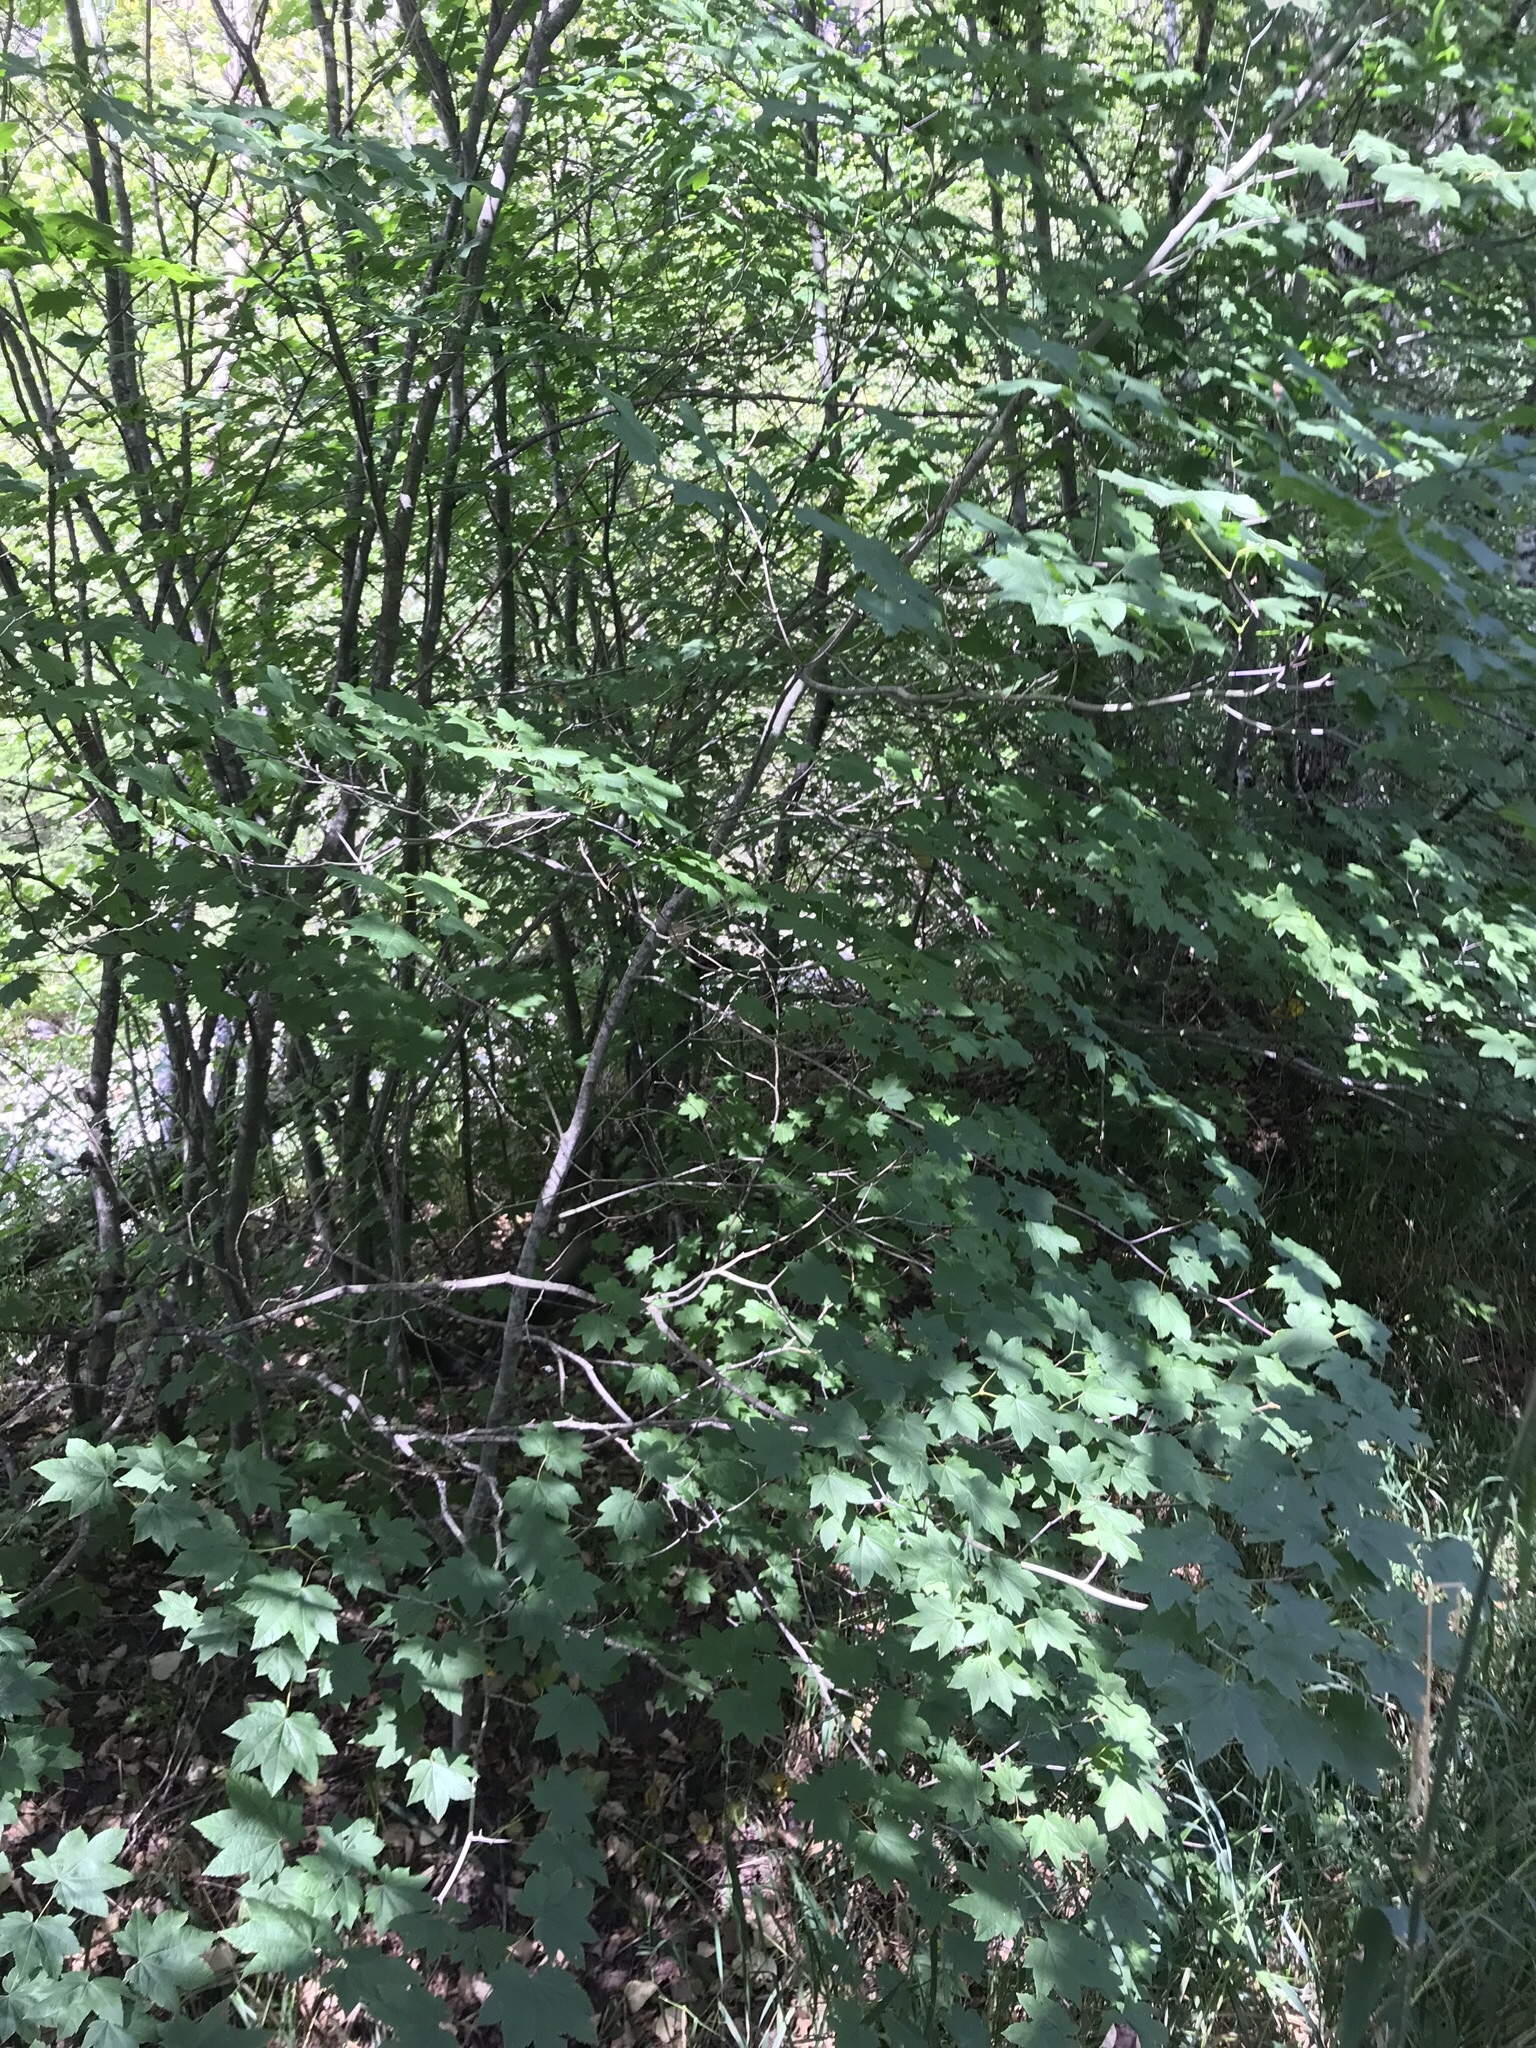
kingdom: Plantae
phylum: Tracheophyta
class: Magnoliopsida
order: Sapindales
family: Sapindaceae
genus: Acer
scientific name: Acer circinatum
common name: Vine maple
